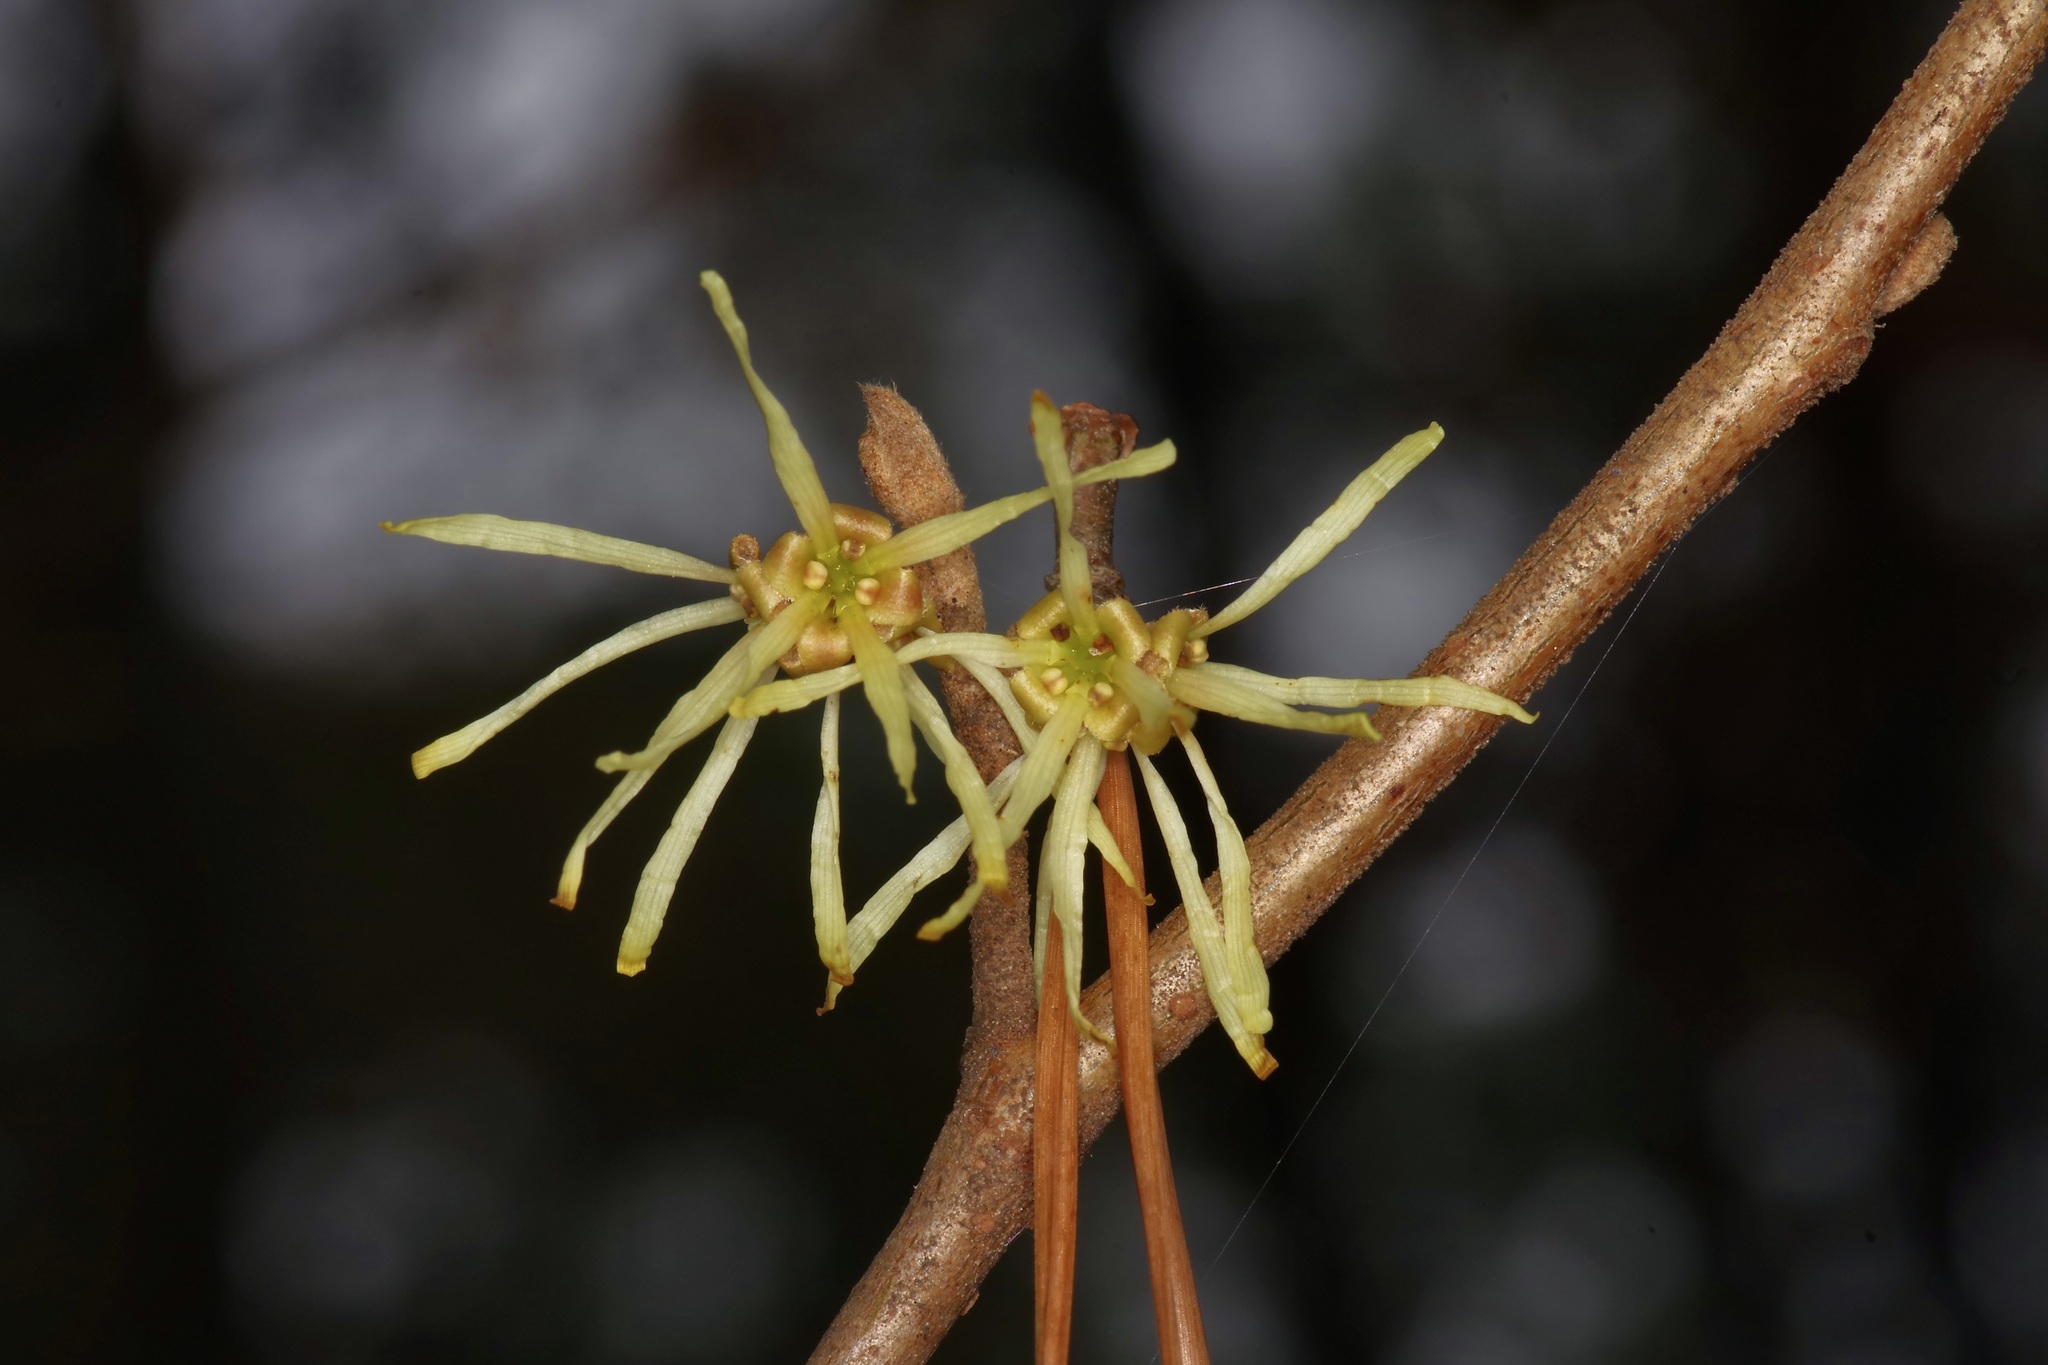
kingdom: Plantae
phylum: Tracheophyta
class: Magnoliopsida
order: Saxifragales
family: Hamamelidaceae
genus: Hamamelis
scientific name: Hamamelis virginiana
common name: Witch-hazel
